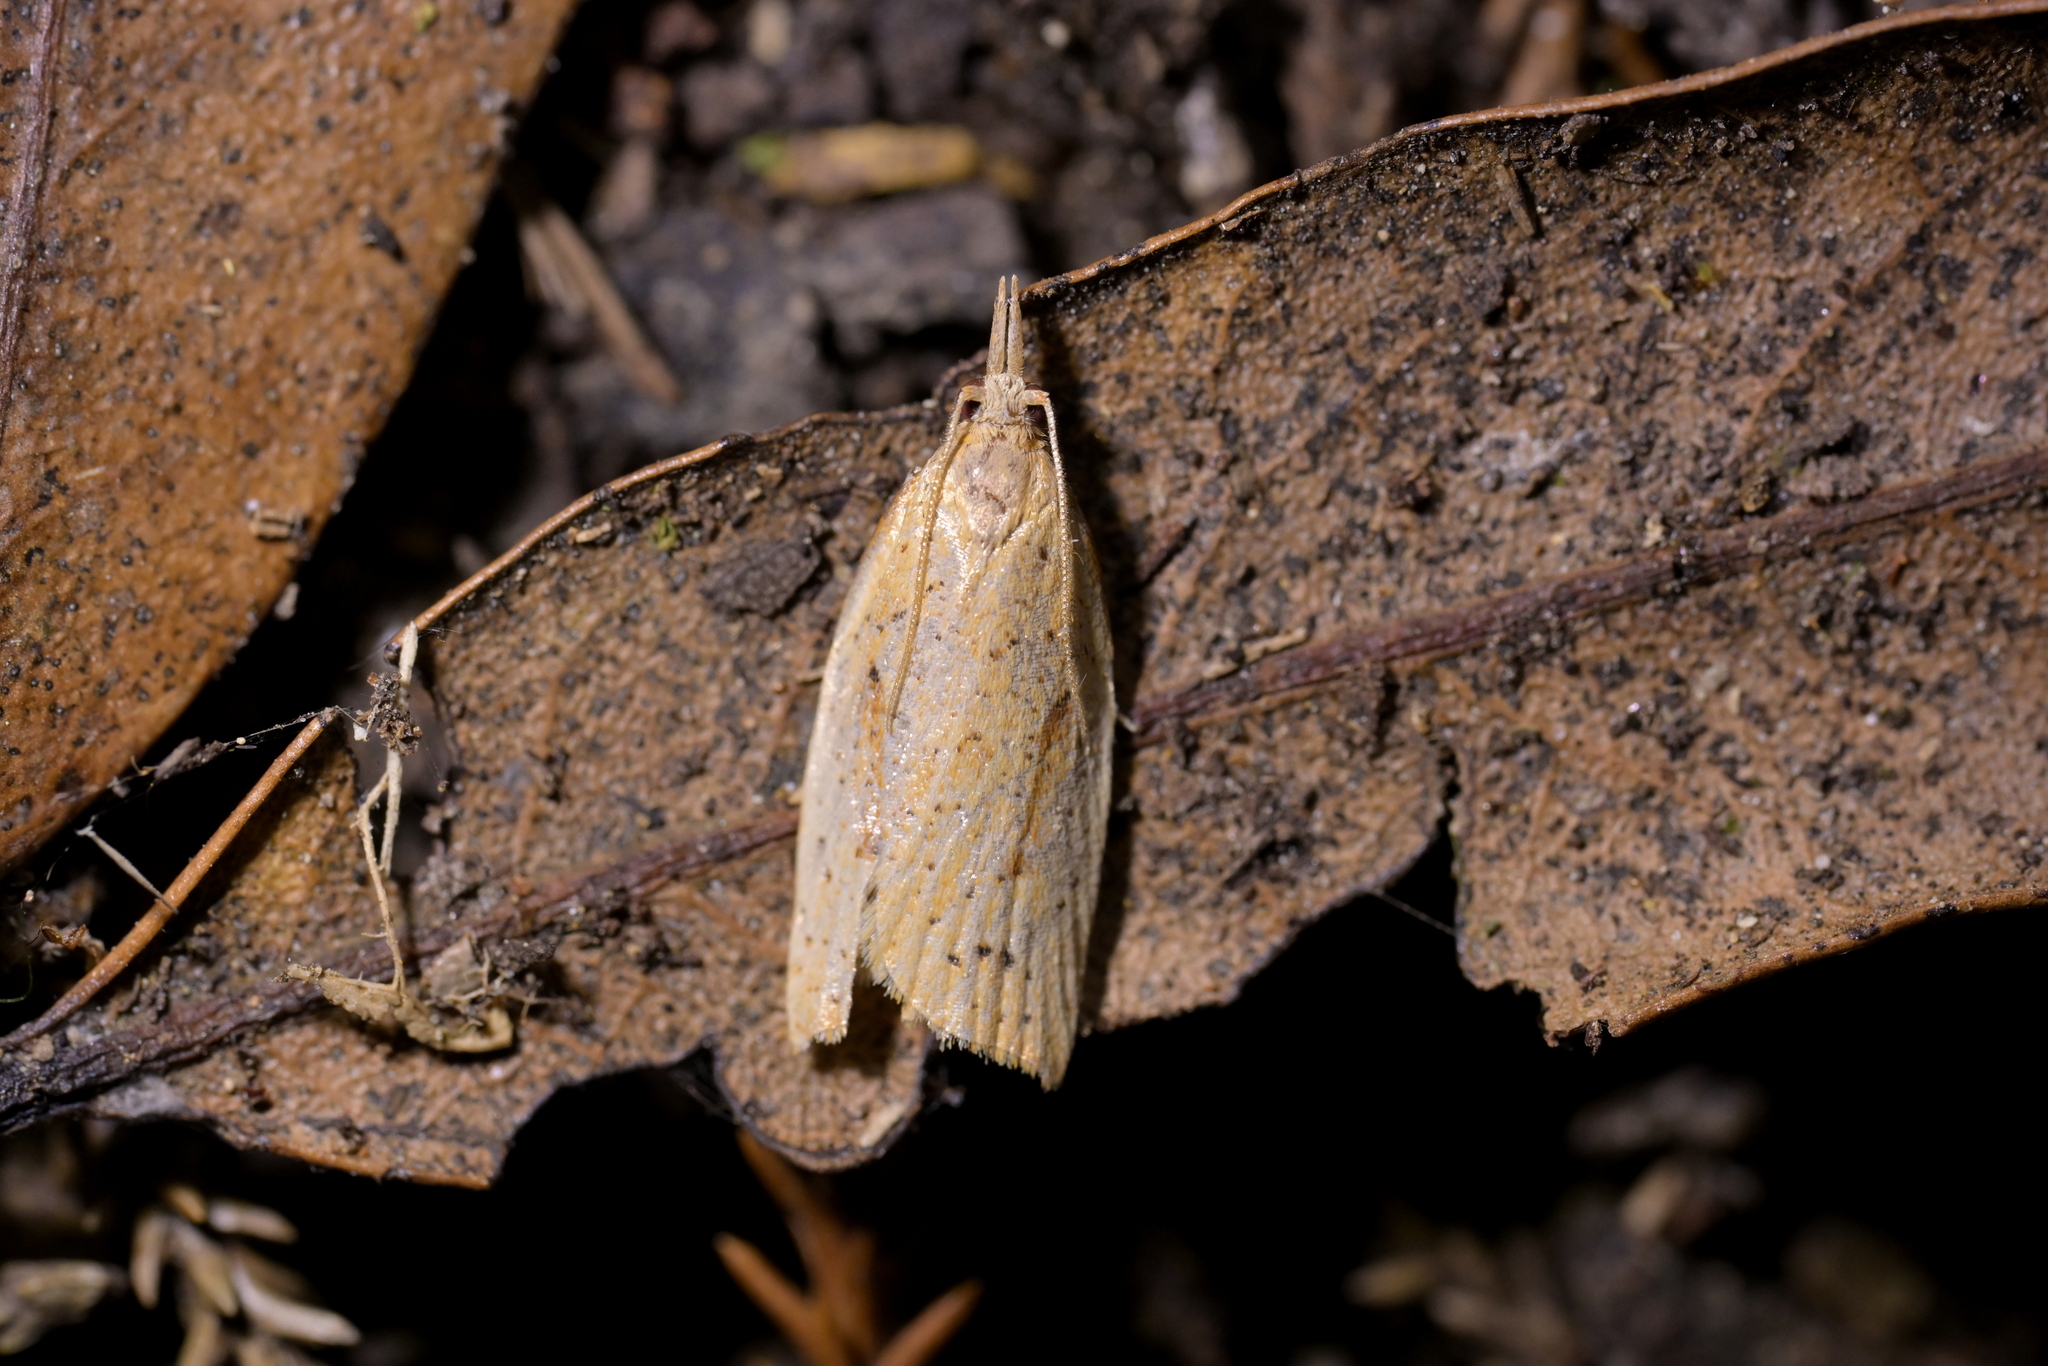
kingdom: Animalia
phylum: Arthropoda
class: Insecta
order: Lepidoptera
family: Tortricidae
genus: Apoctena
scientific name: Apoctena conditana
